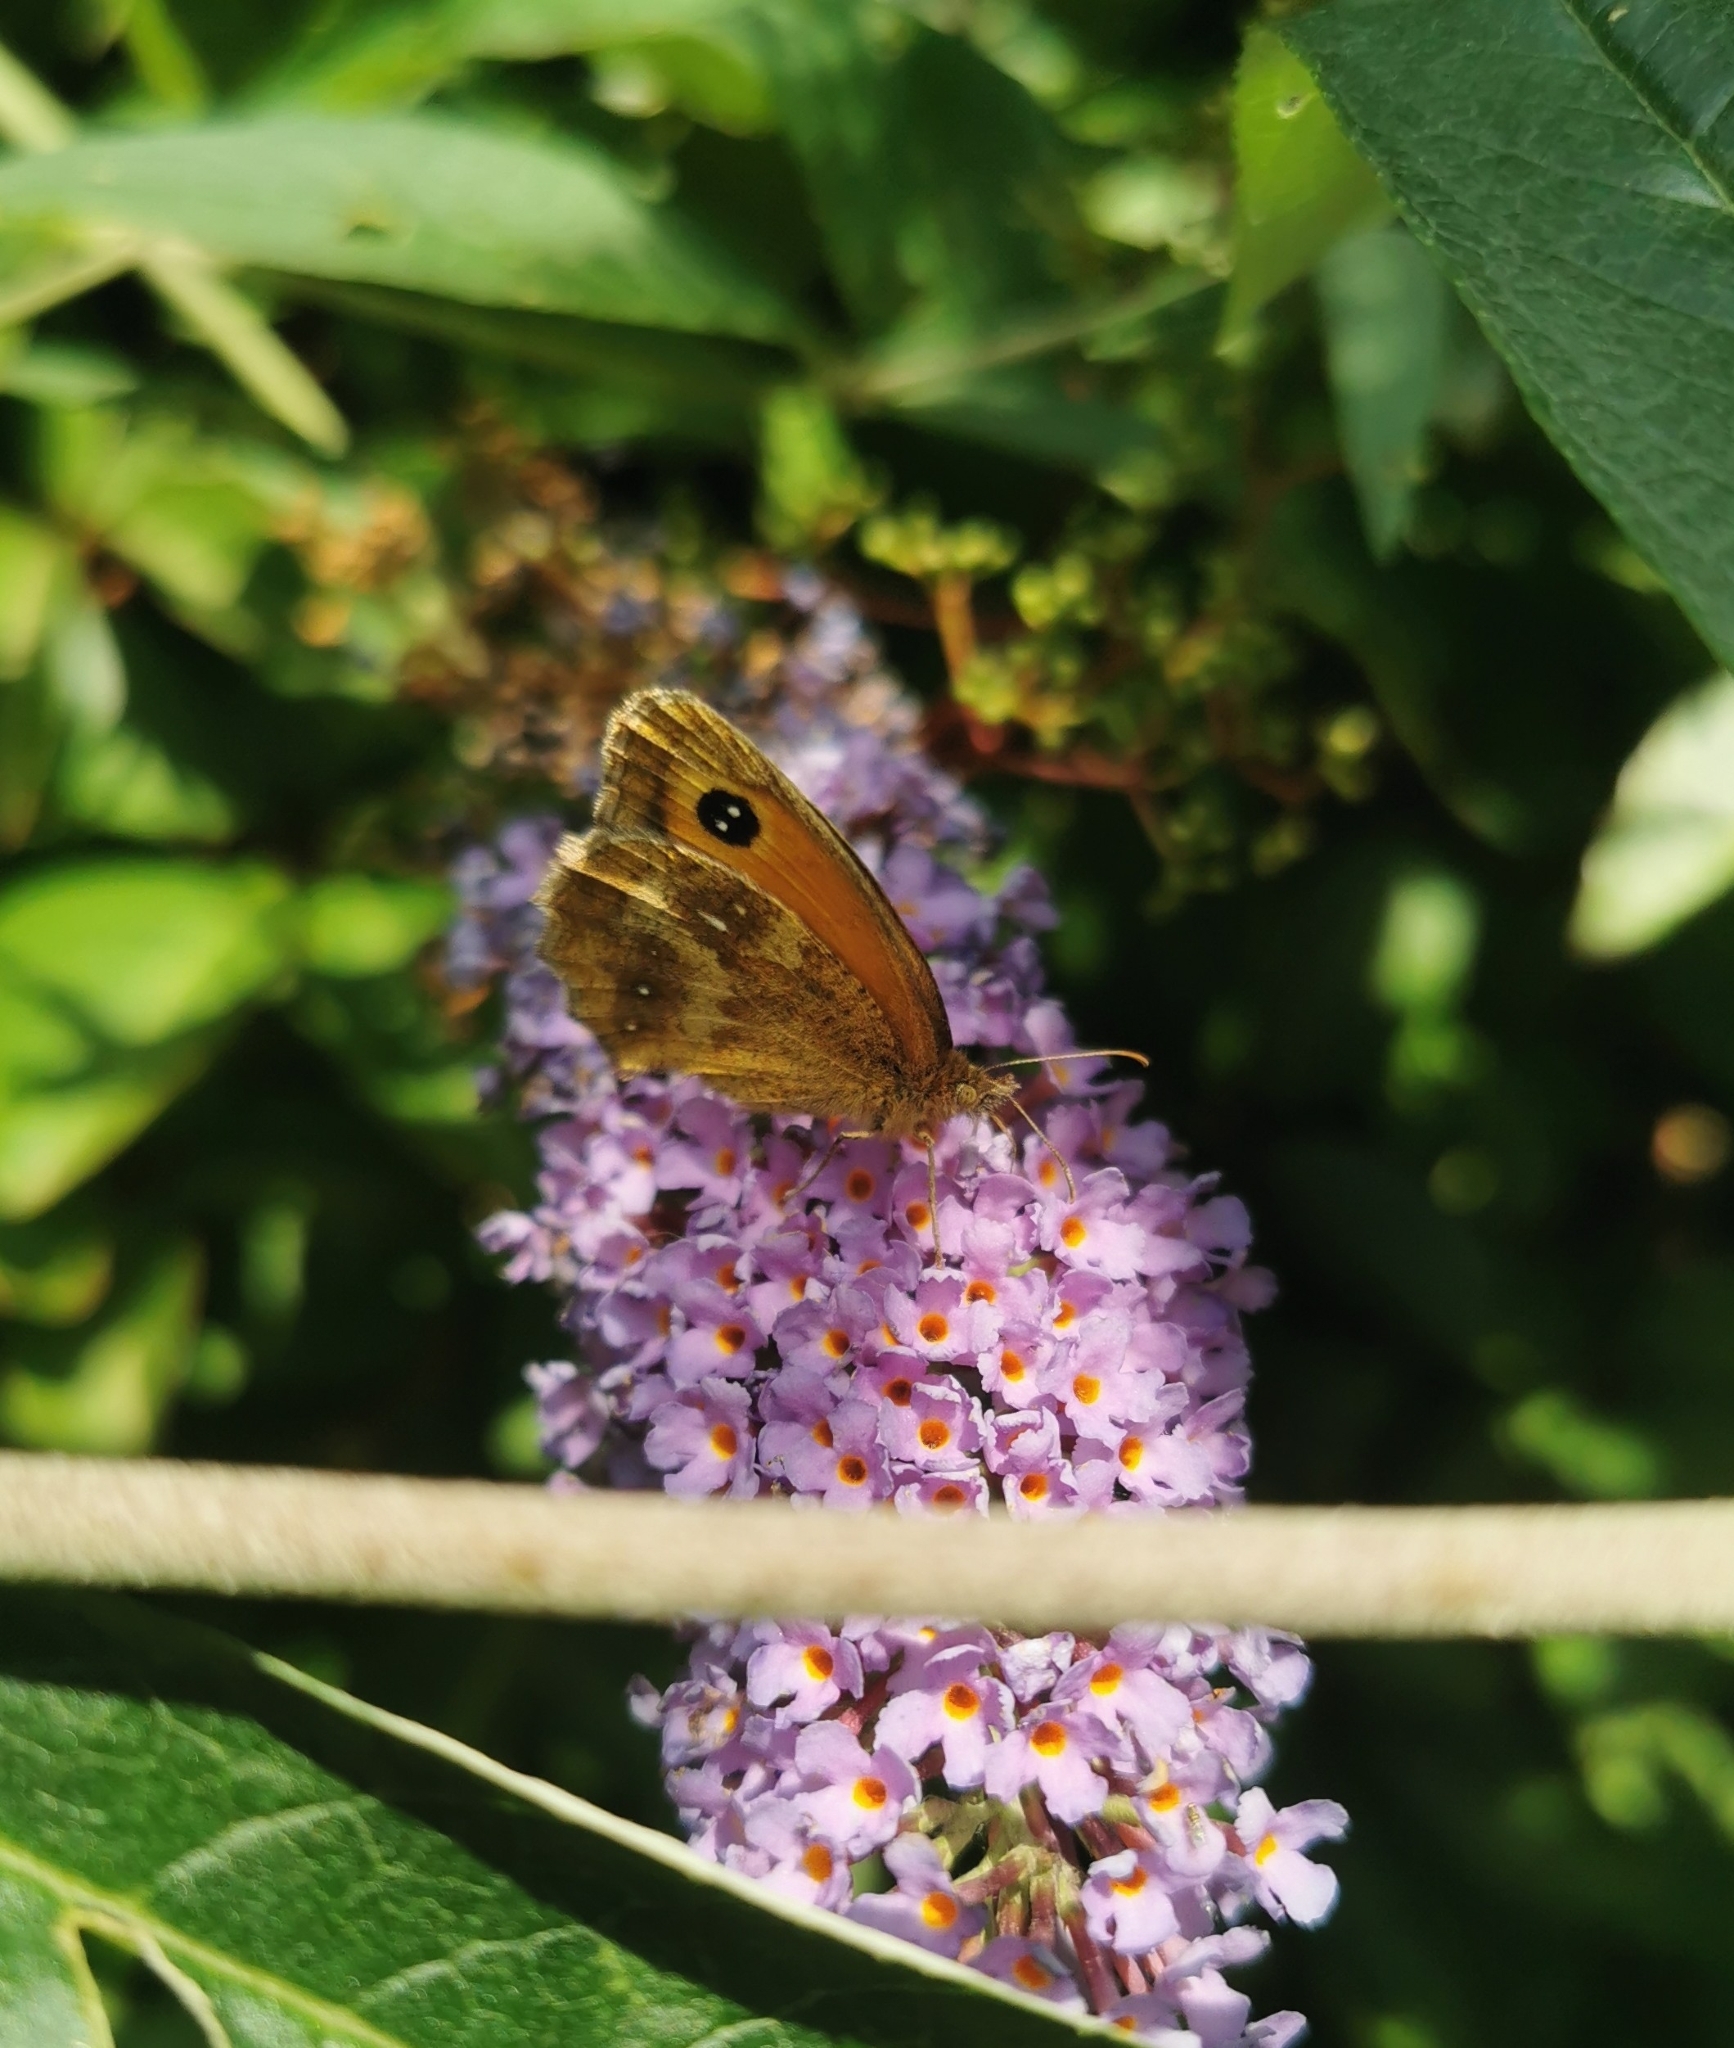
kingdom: Animalia
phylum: Arthropoda
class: Insecta
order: Lepidoptera
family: Nymphalidae
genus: Pyronia
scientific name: Pyronia tithonus
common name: Gatekeeper
